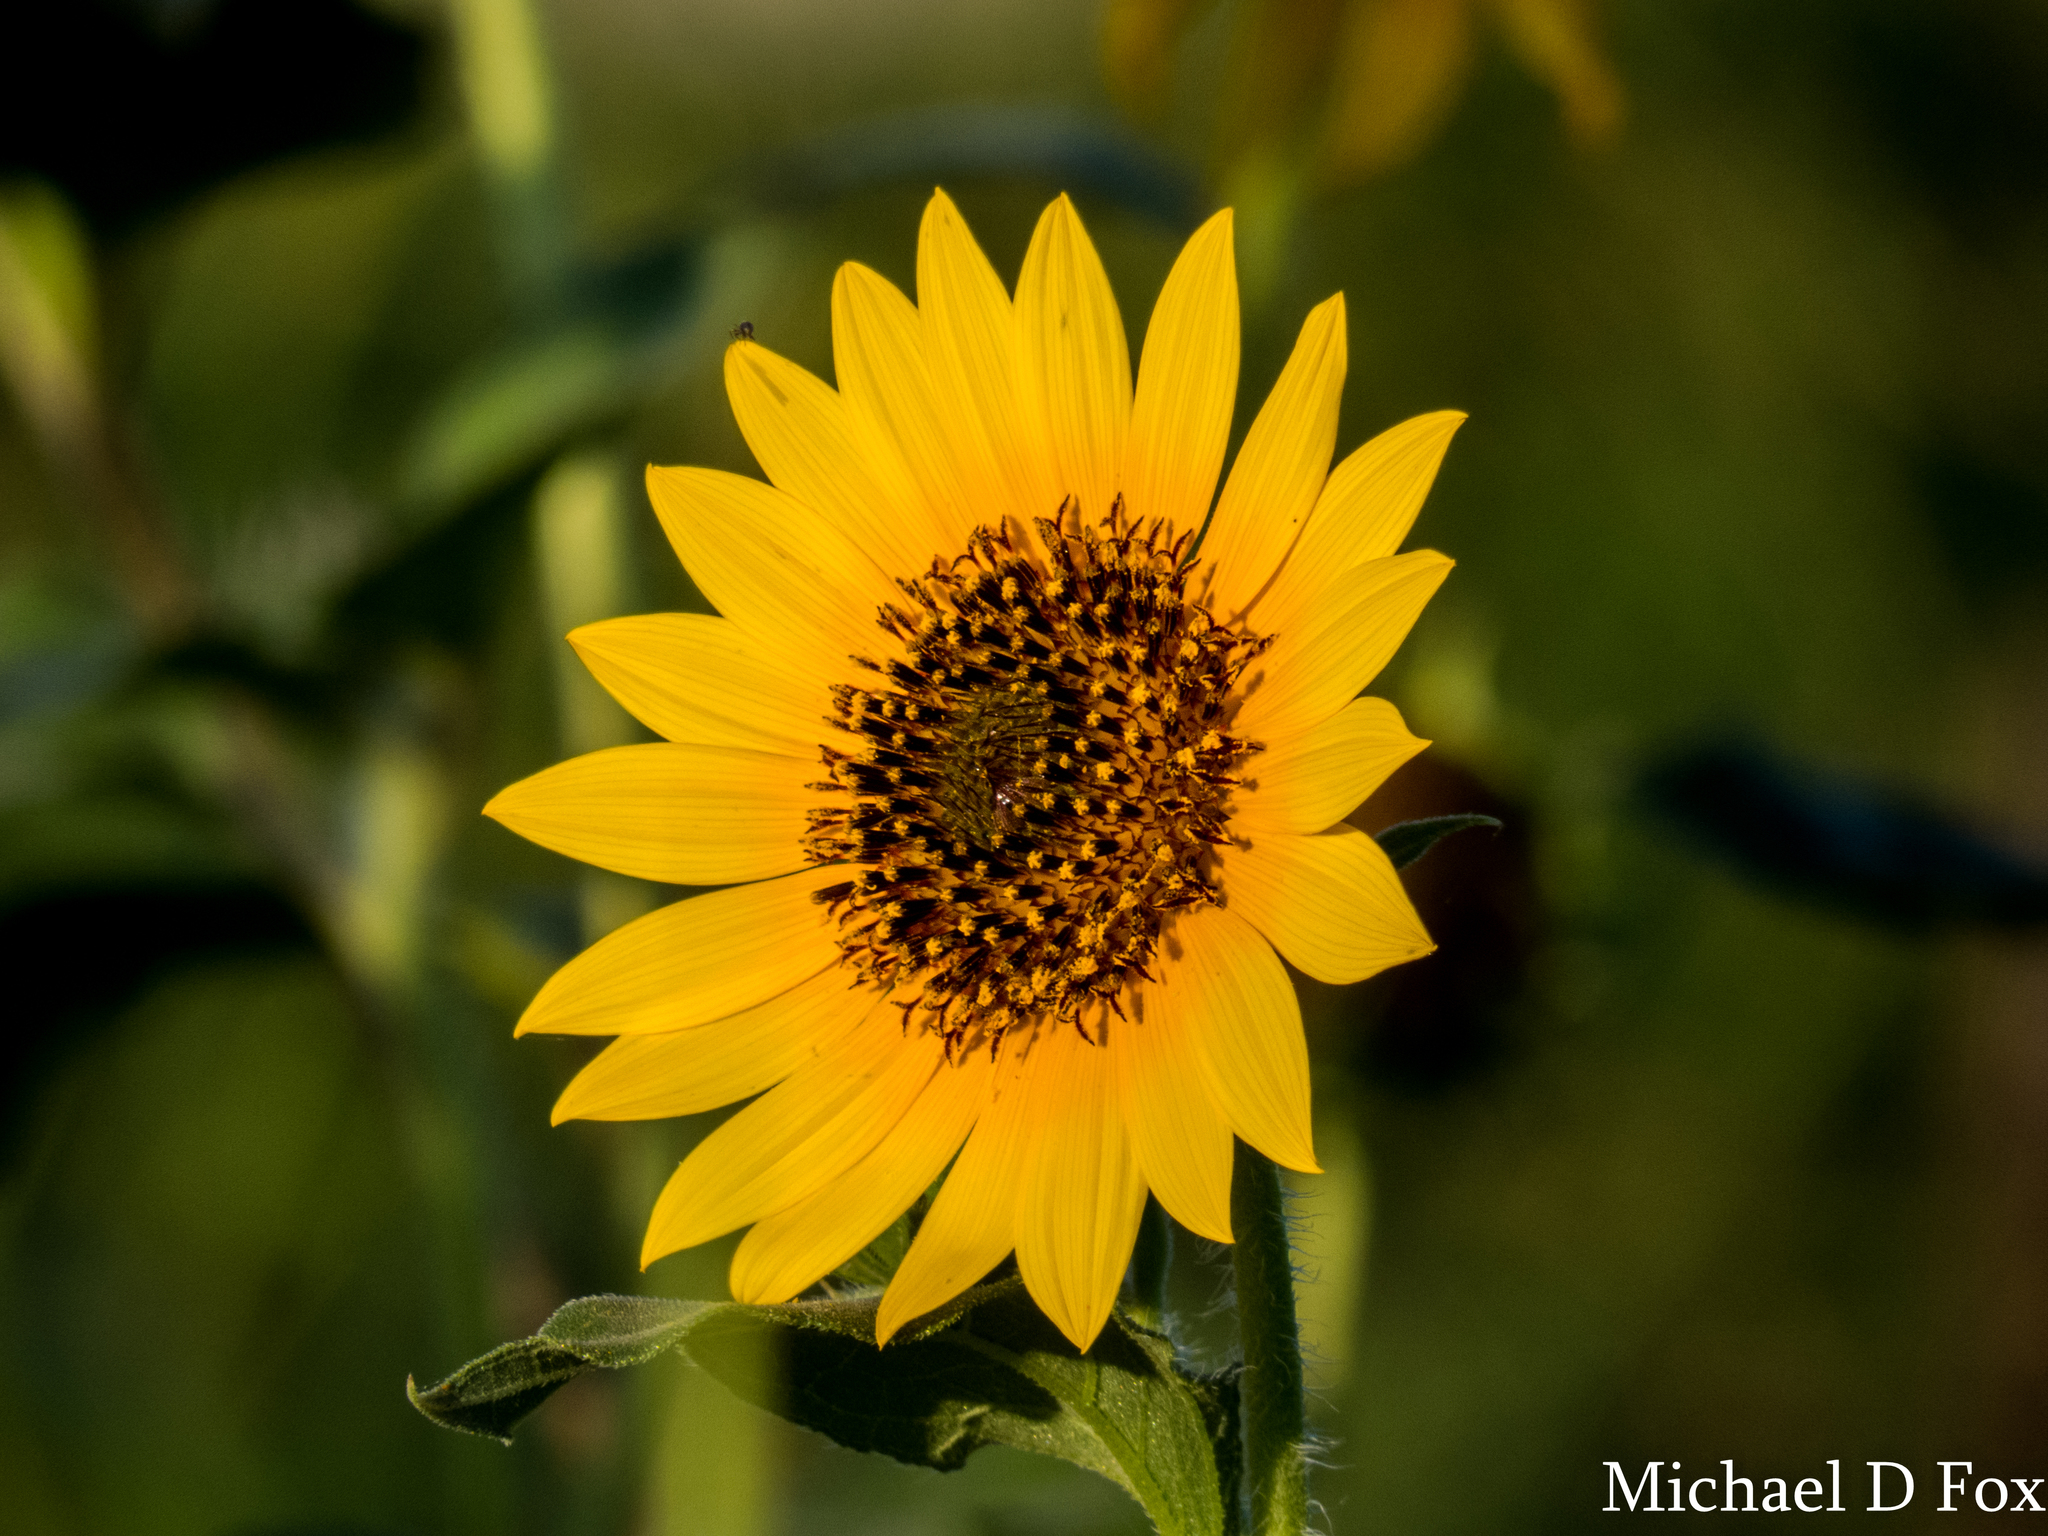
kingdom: Plantae
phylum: Tracheophyta
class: Magnoliopsida
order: Asterales
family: Asteraceae
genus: Helianthus
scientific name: Helianthus annuus
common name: Sunflower
